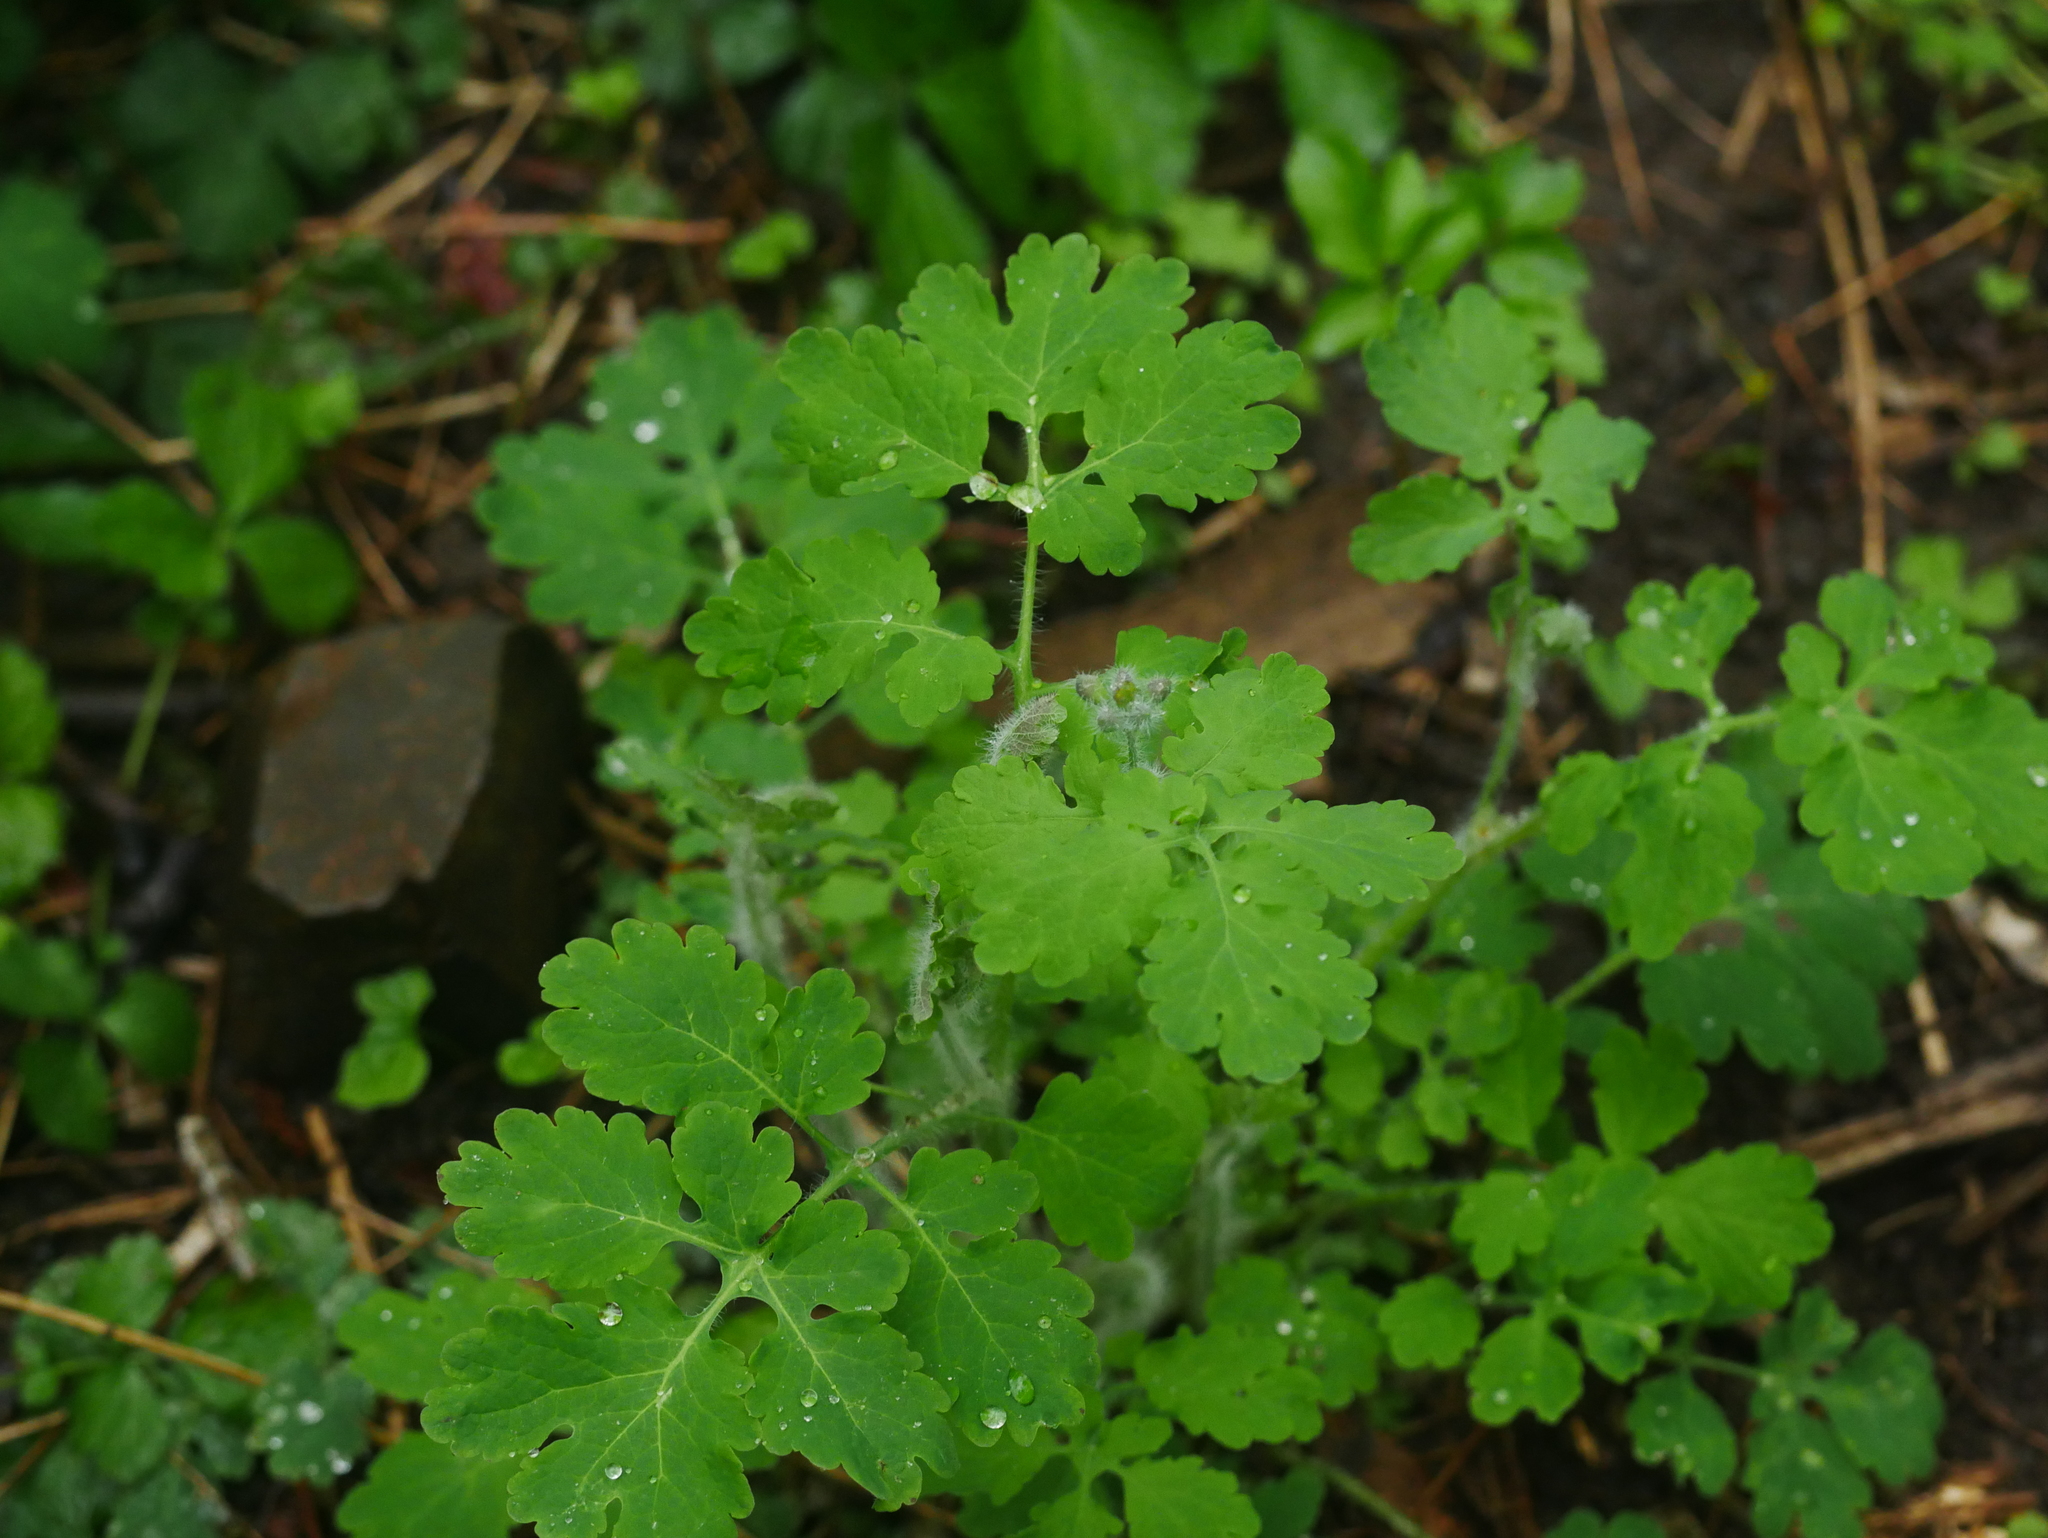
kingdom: Plantae
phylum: Tracheophyta
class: Magnoliopsida
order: Ranunculales
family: Papaveraceae
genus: Chelidonium
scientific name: Chelidonium majus
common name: Greater celandine
